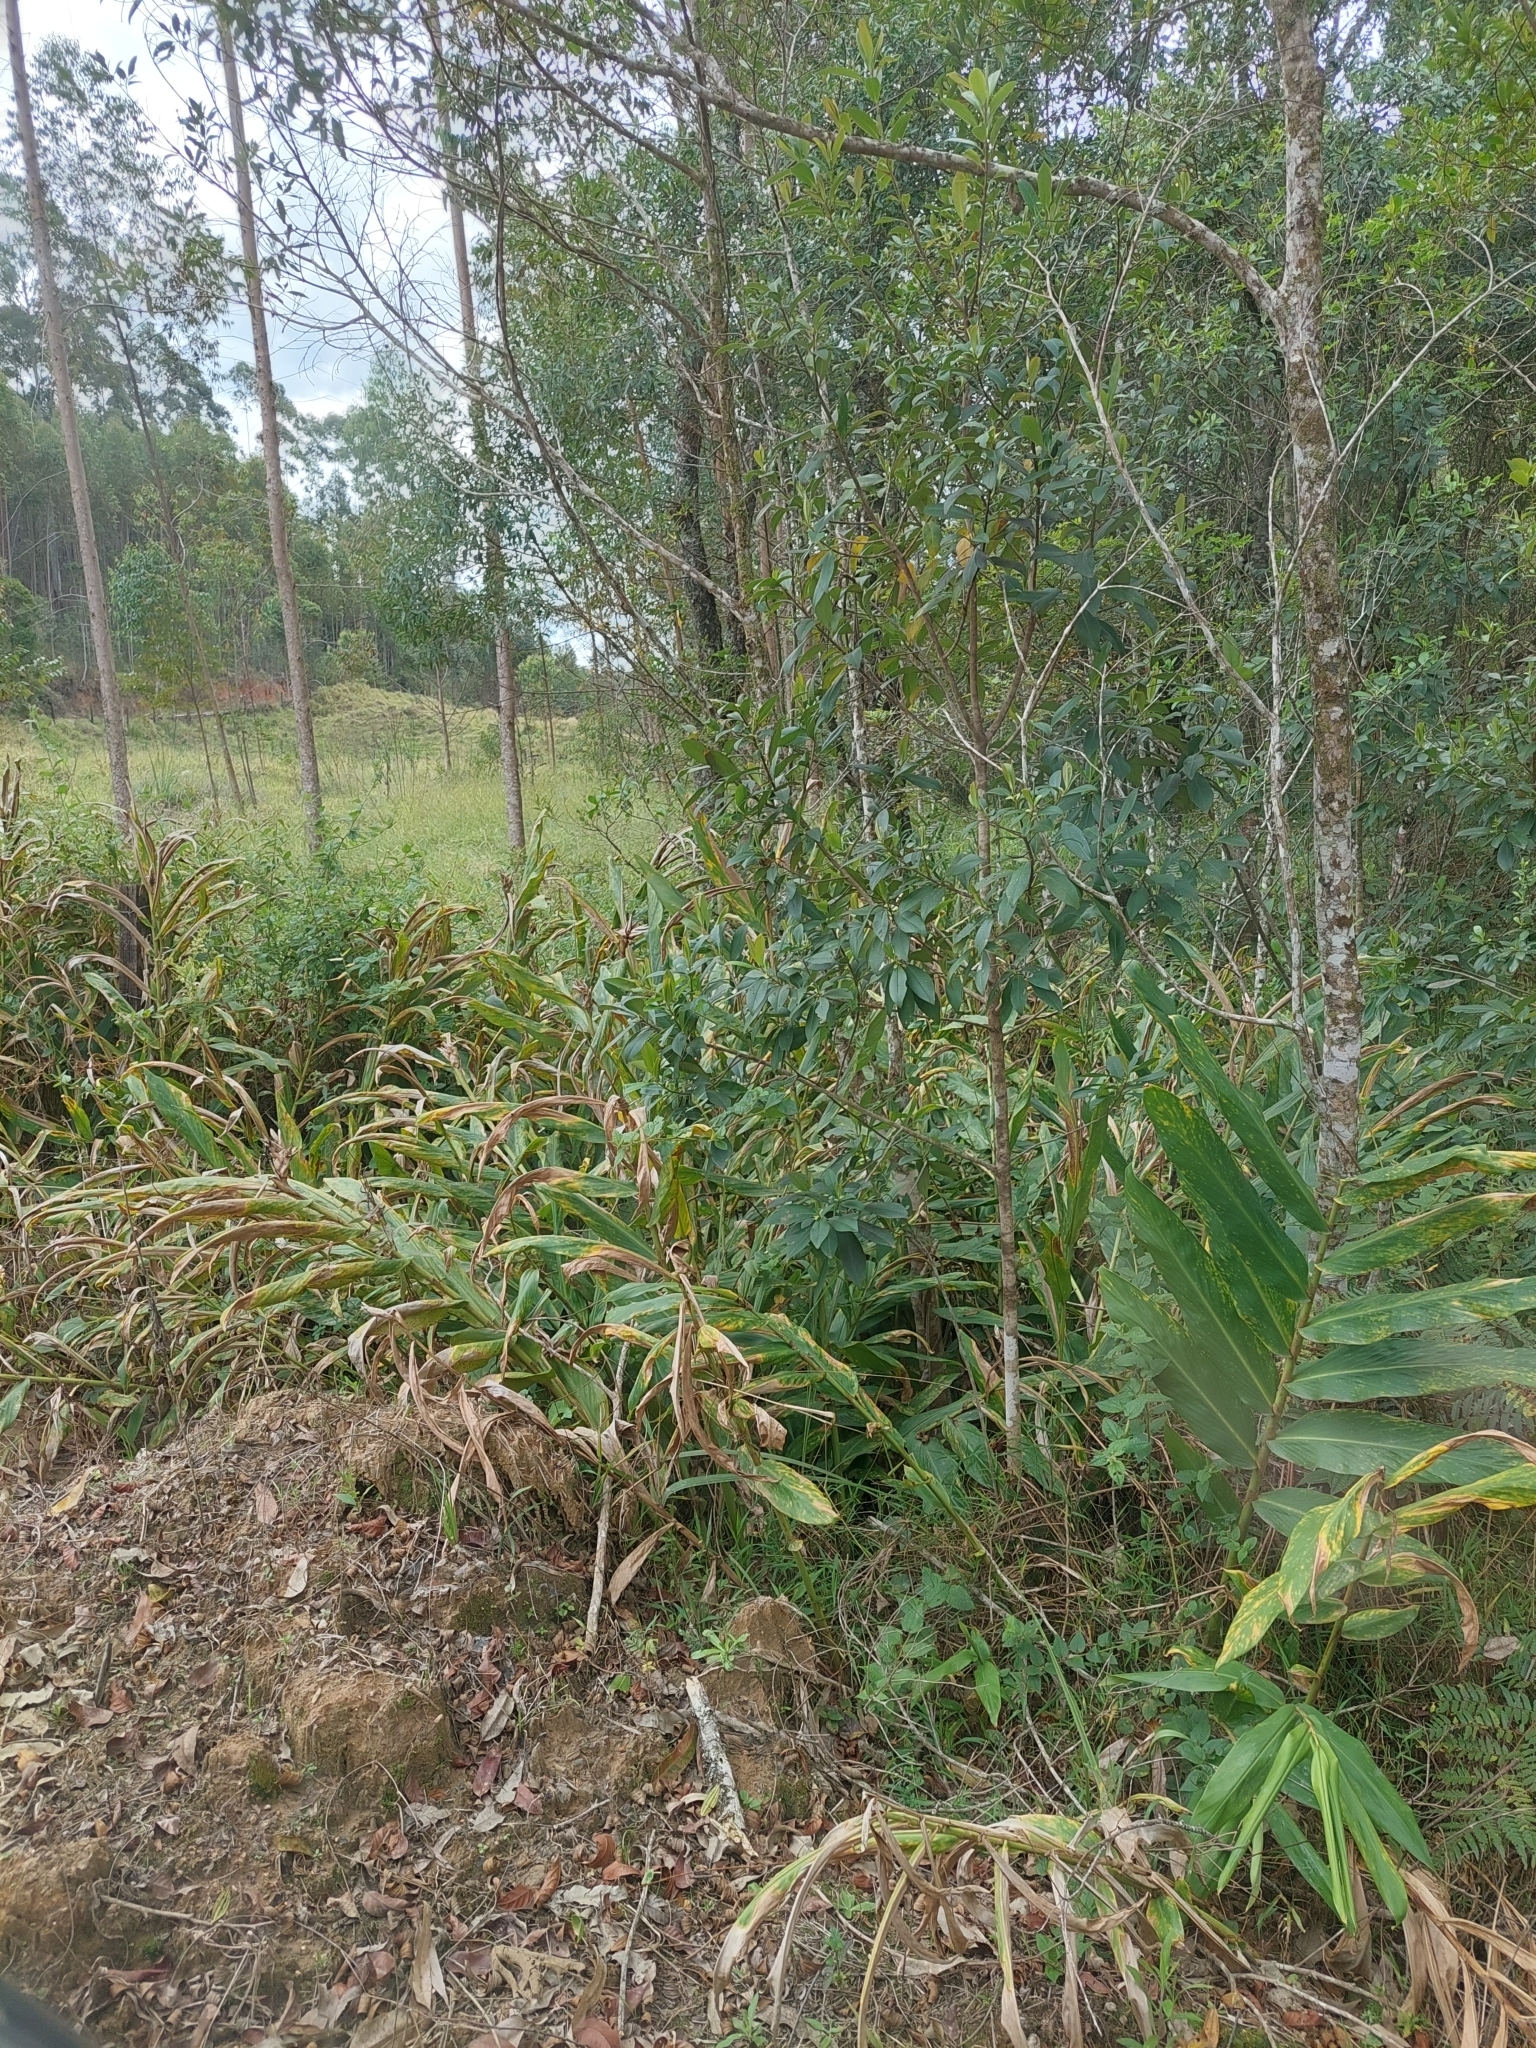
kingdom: Plantae
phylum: Tracheophyta
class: Liliopsida
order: Zingiberales
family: Zingiberaceae
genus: Hedychium
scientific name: Hedychium coronarium
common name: White garland-lily
